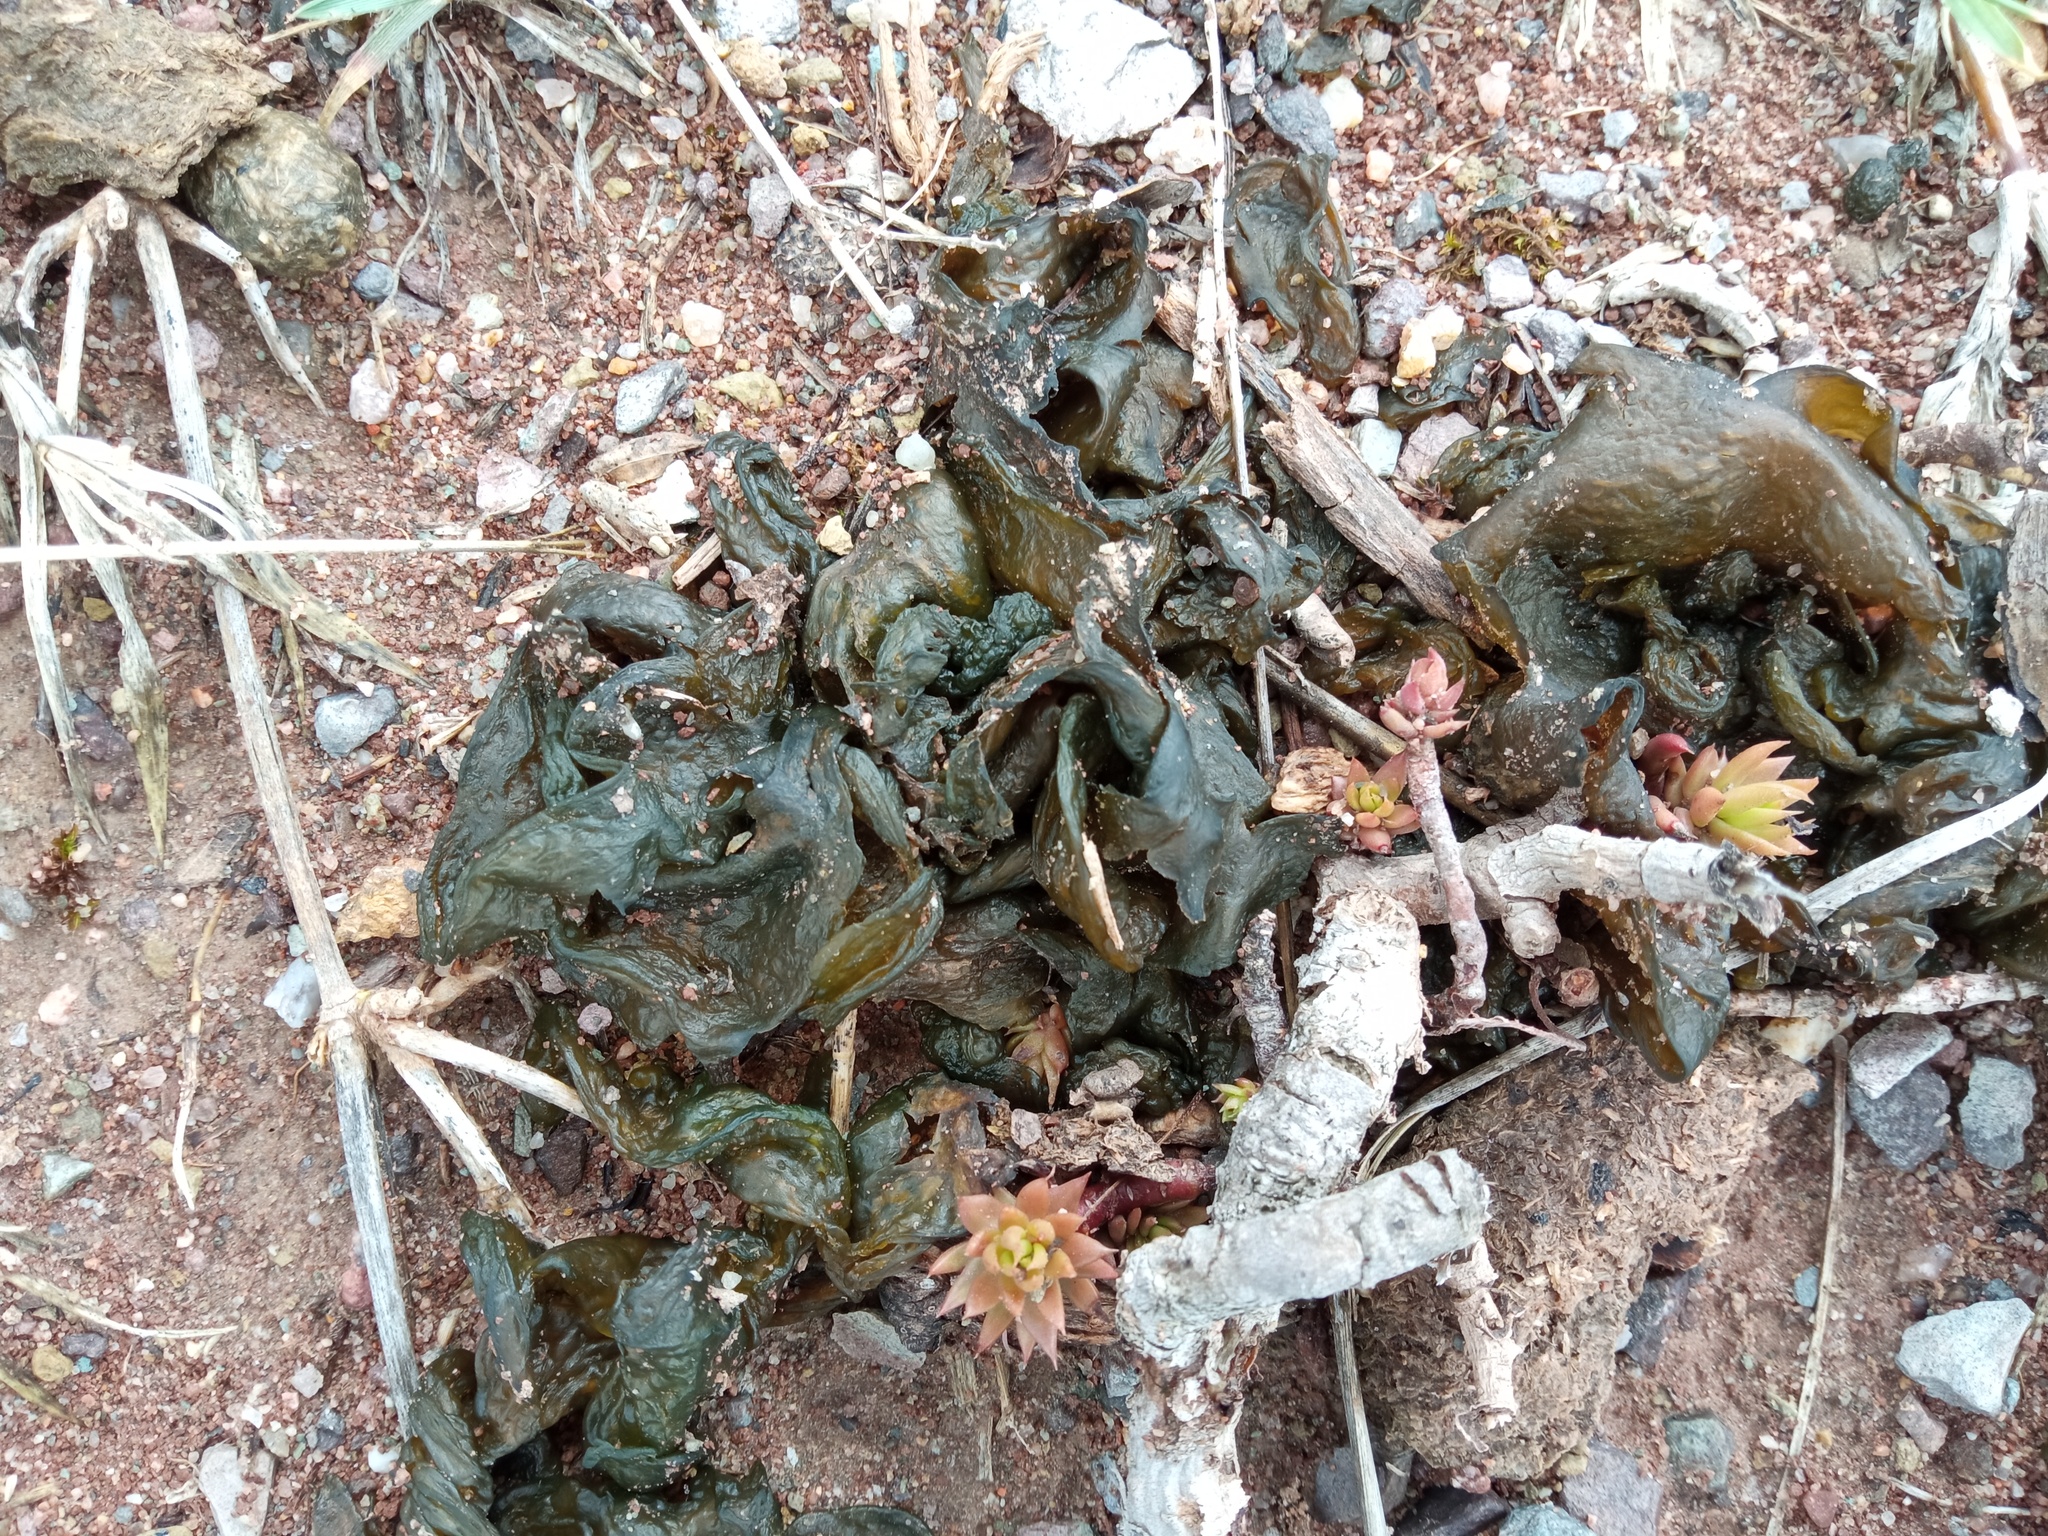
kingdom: Bacteria
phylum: Cyanobacteria
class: Cyanobacteriia
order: Cyanobacteriales
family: Nostocaceae
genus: Nostoc
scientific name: Nostoc commune
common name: Star jelly
